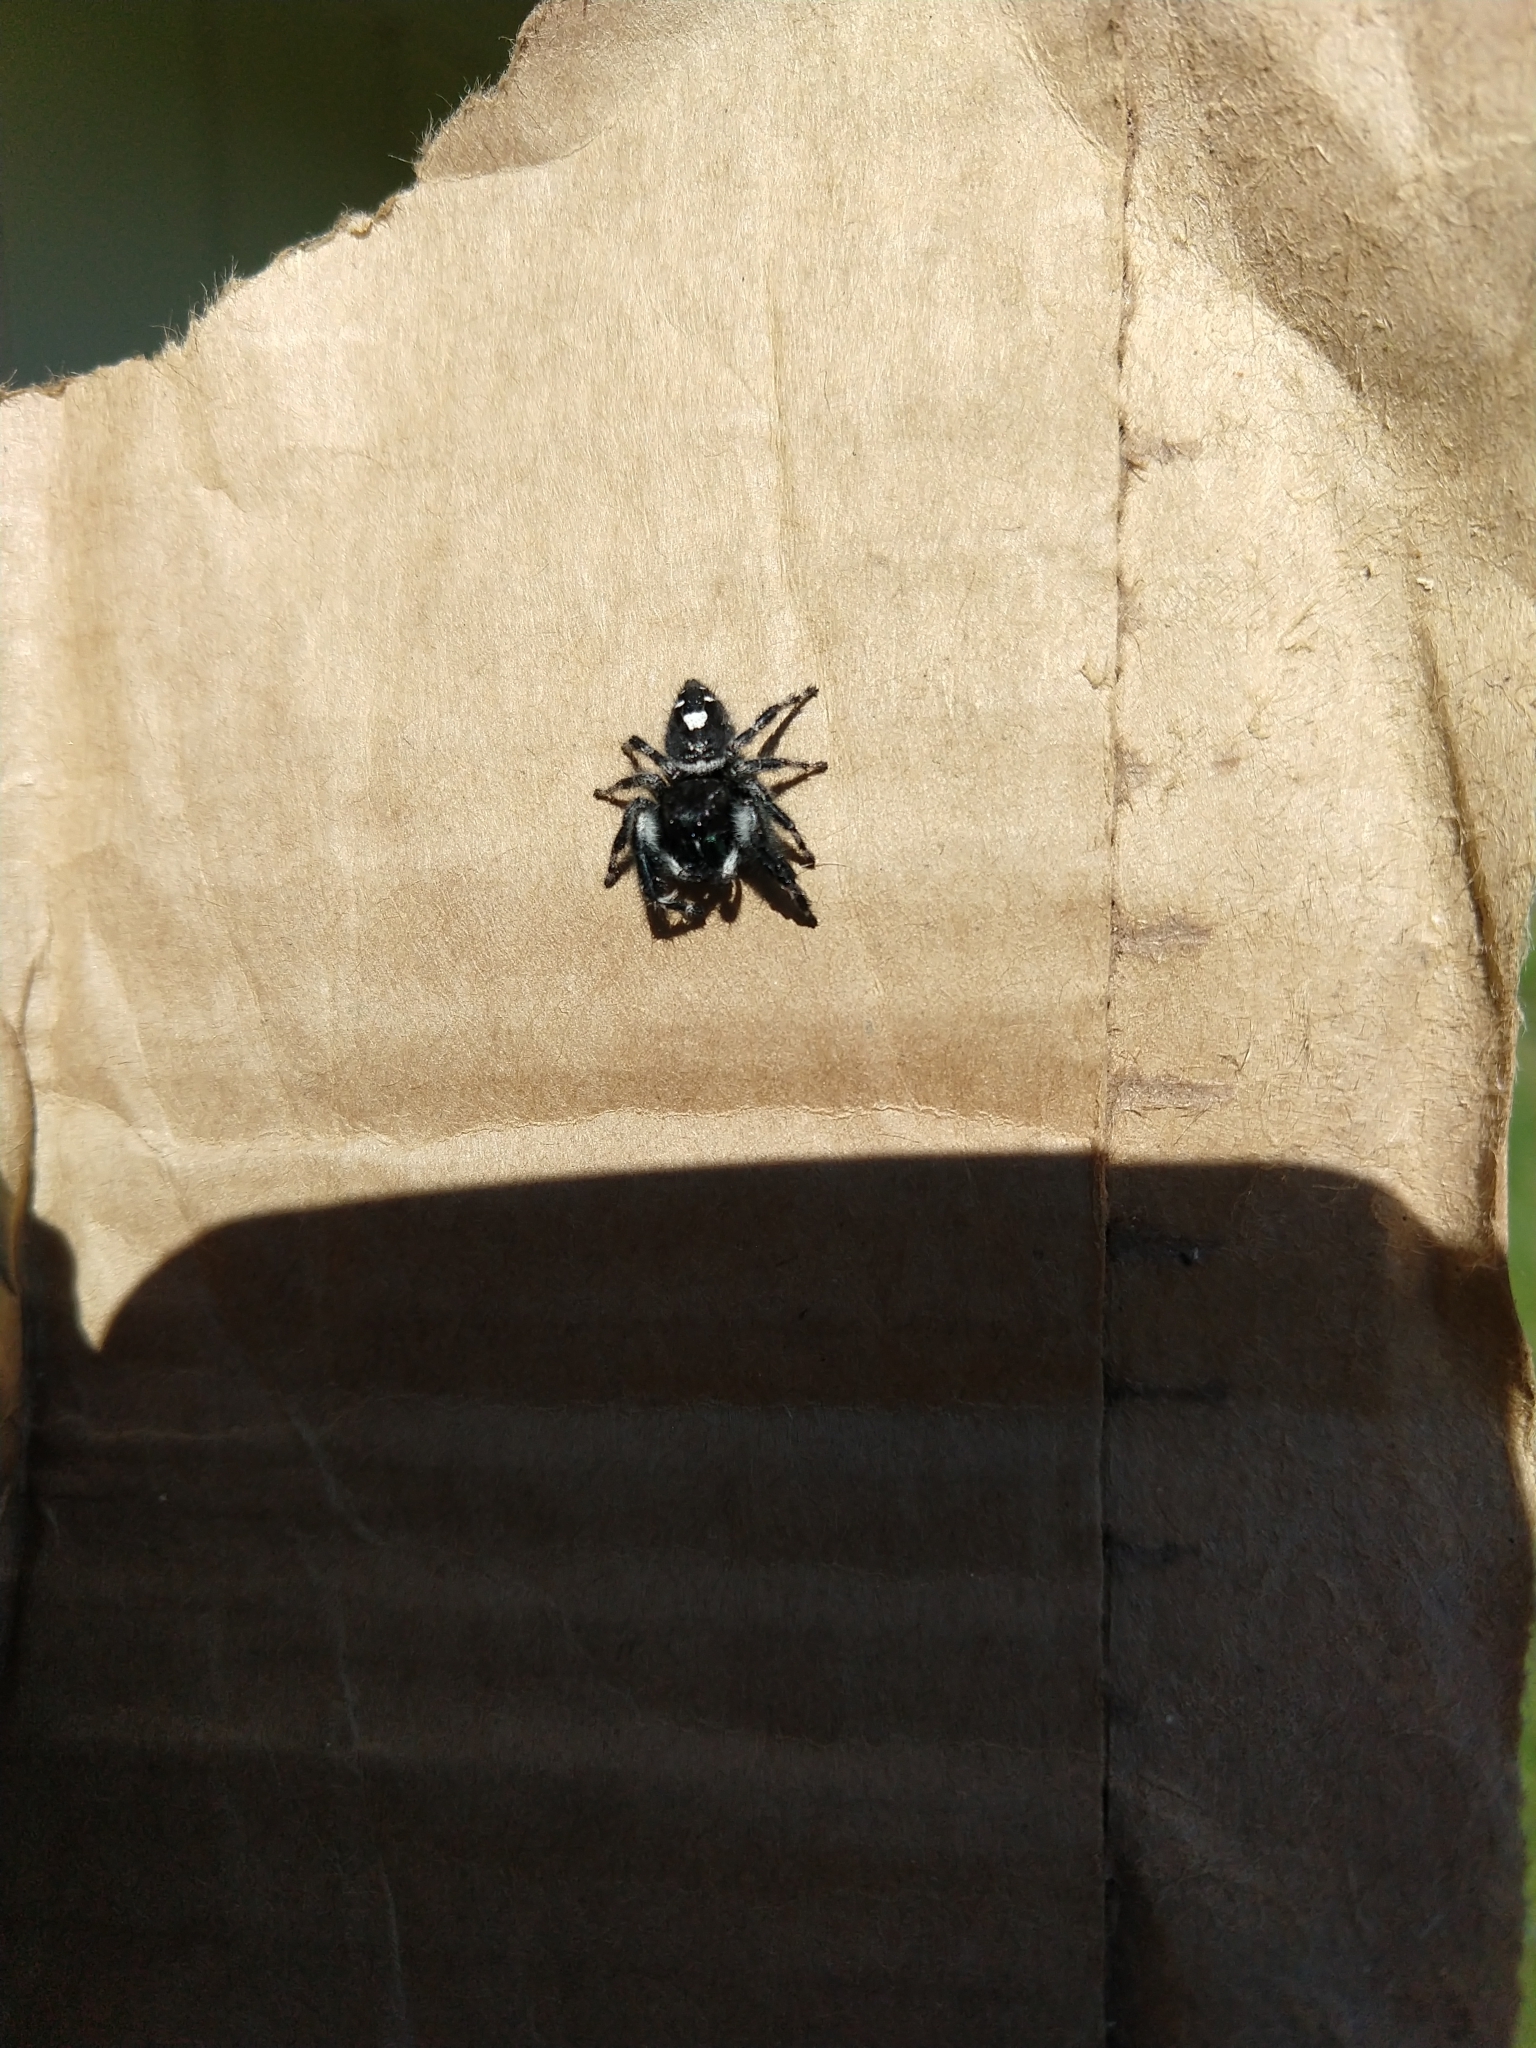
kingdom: Animalia
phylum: Arthropoda
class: Arachnida
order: Araneae
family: Salticidae
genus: Phidippus
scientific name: Phidippus audax
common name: Bold jumper
